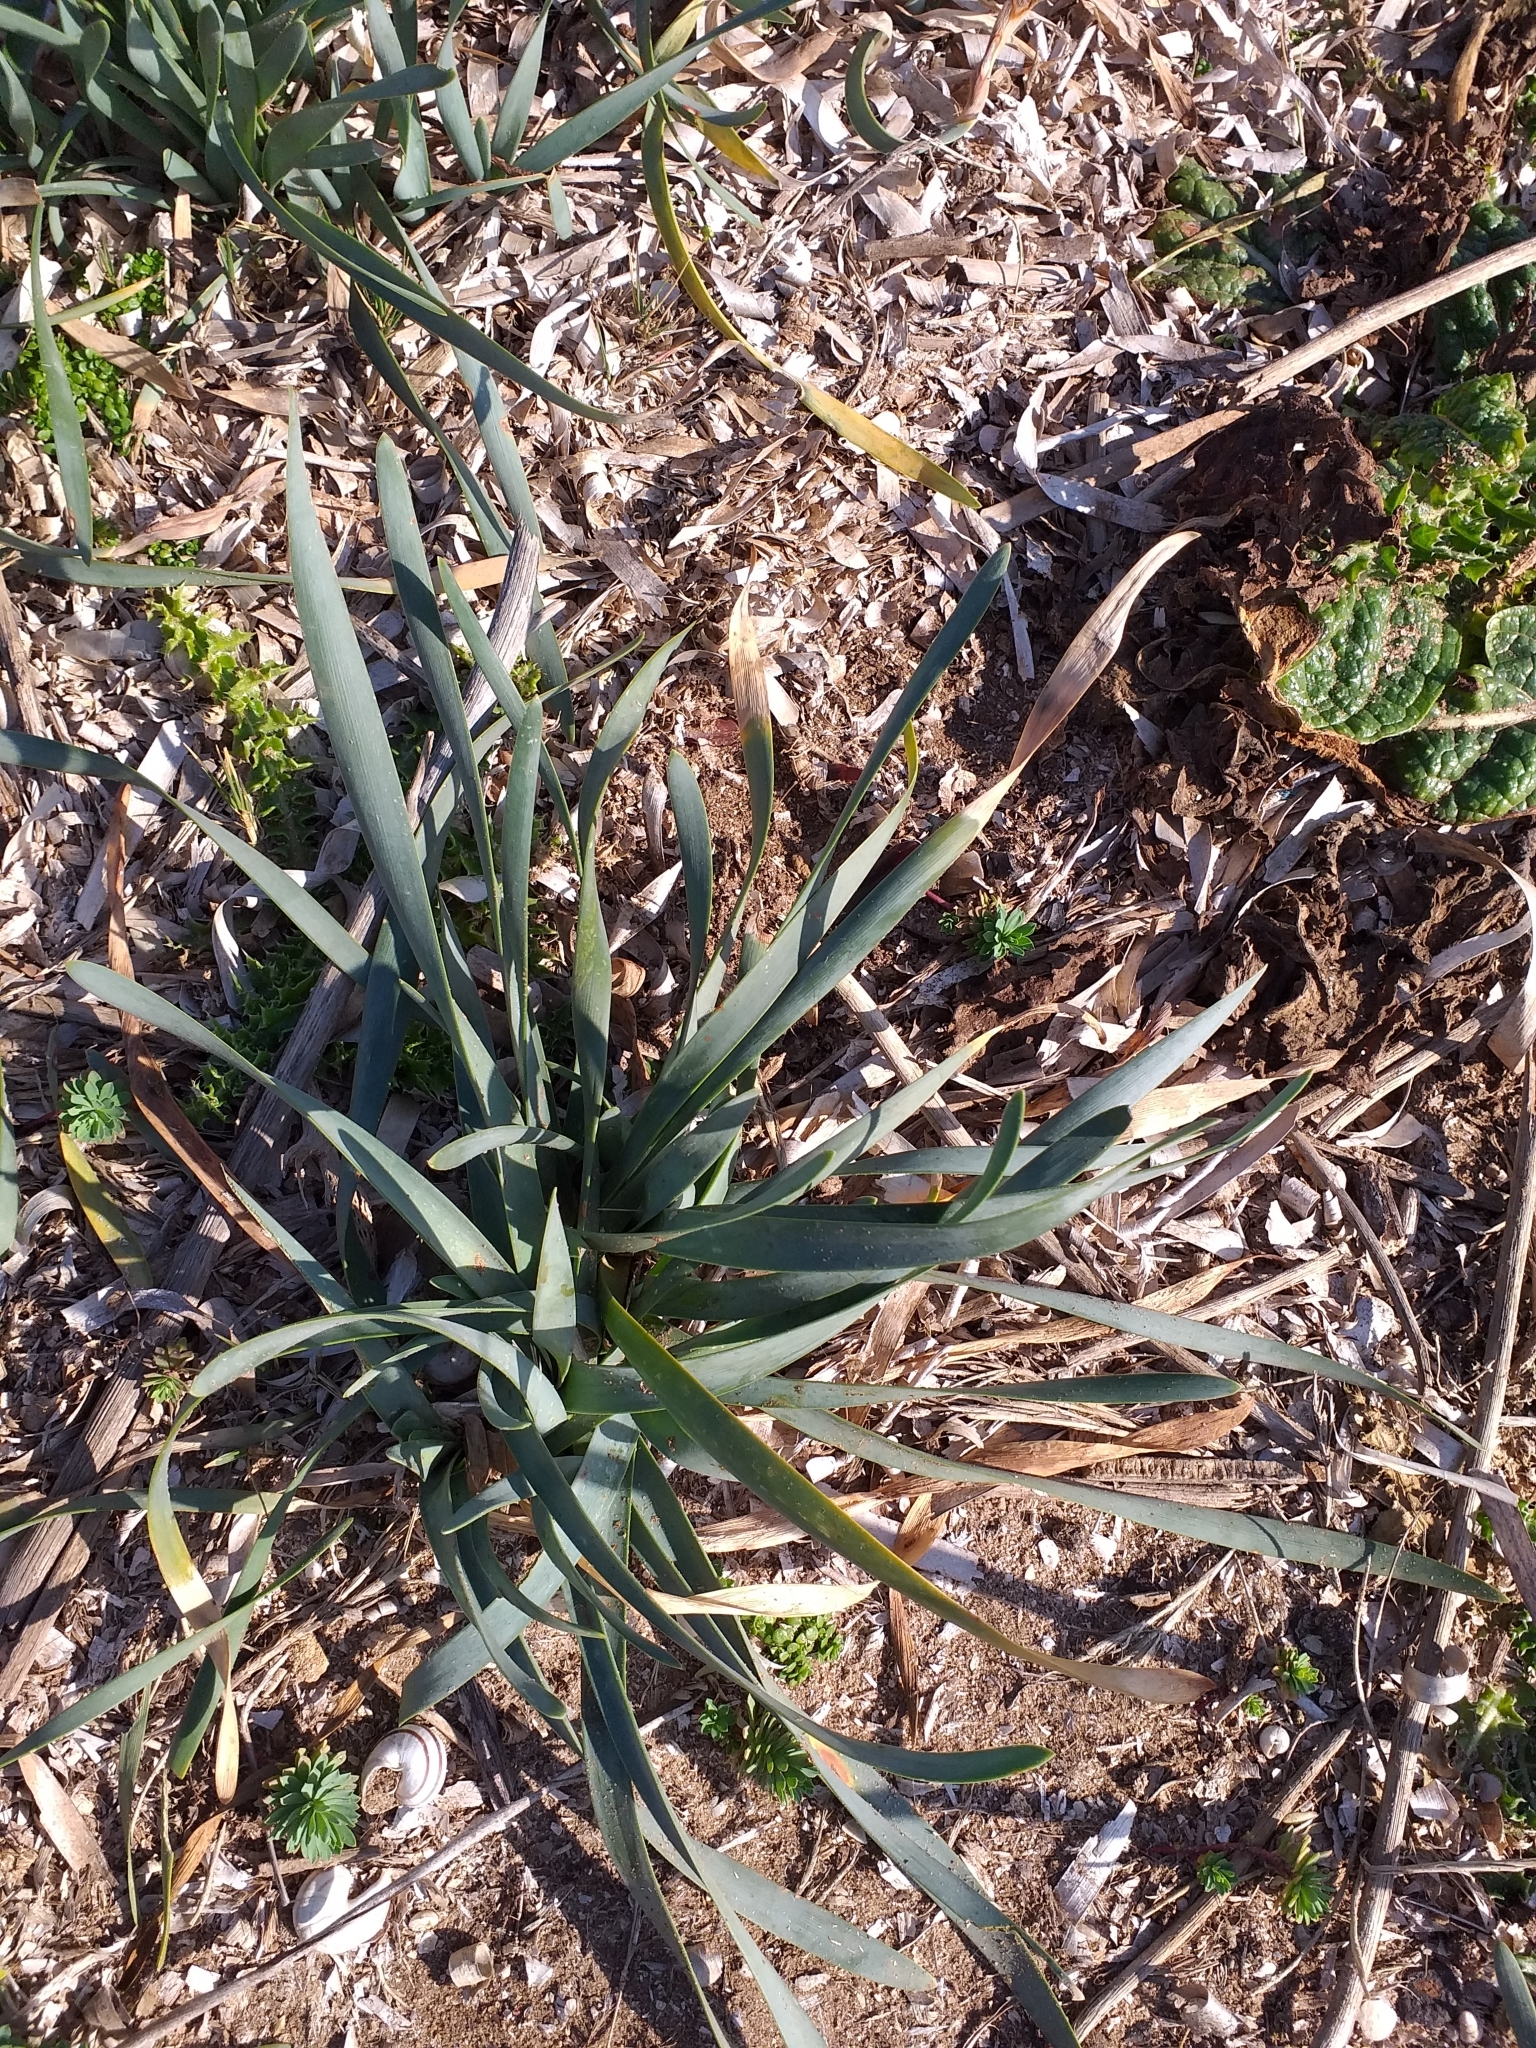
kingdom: Plantae
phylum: Tracheophyta
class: Liliopsida
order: Asparagales
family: Amaryllidaceae
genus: Pancratium
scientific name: Pancratium maritimum
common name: Sea-daffodil
